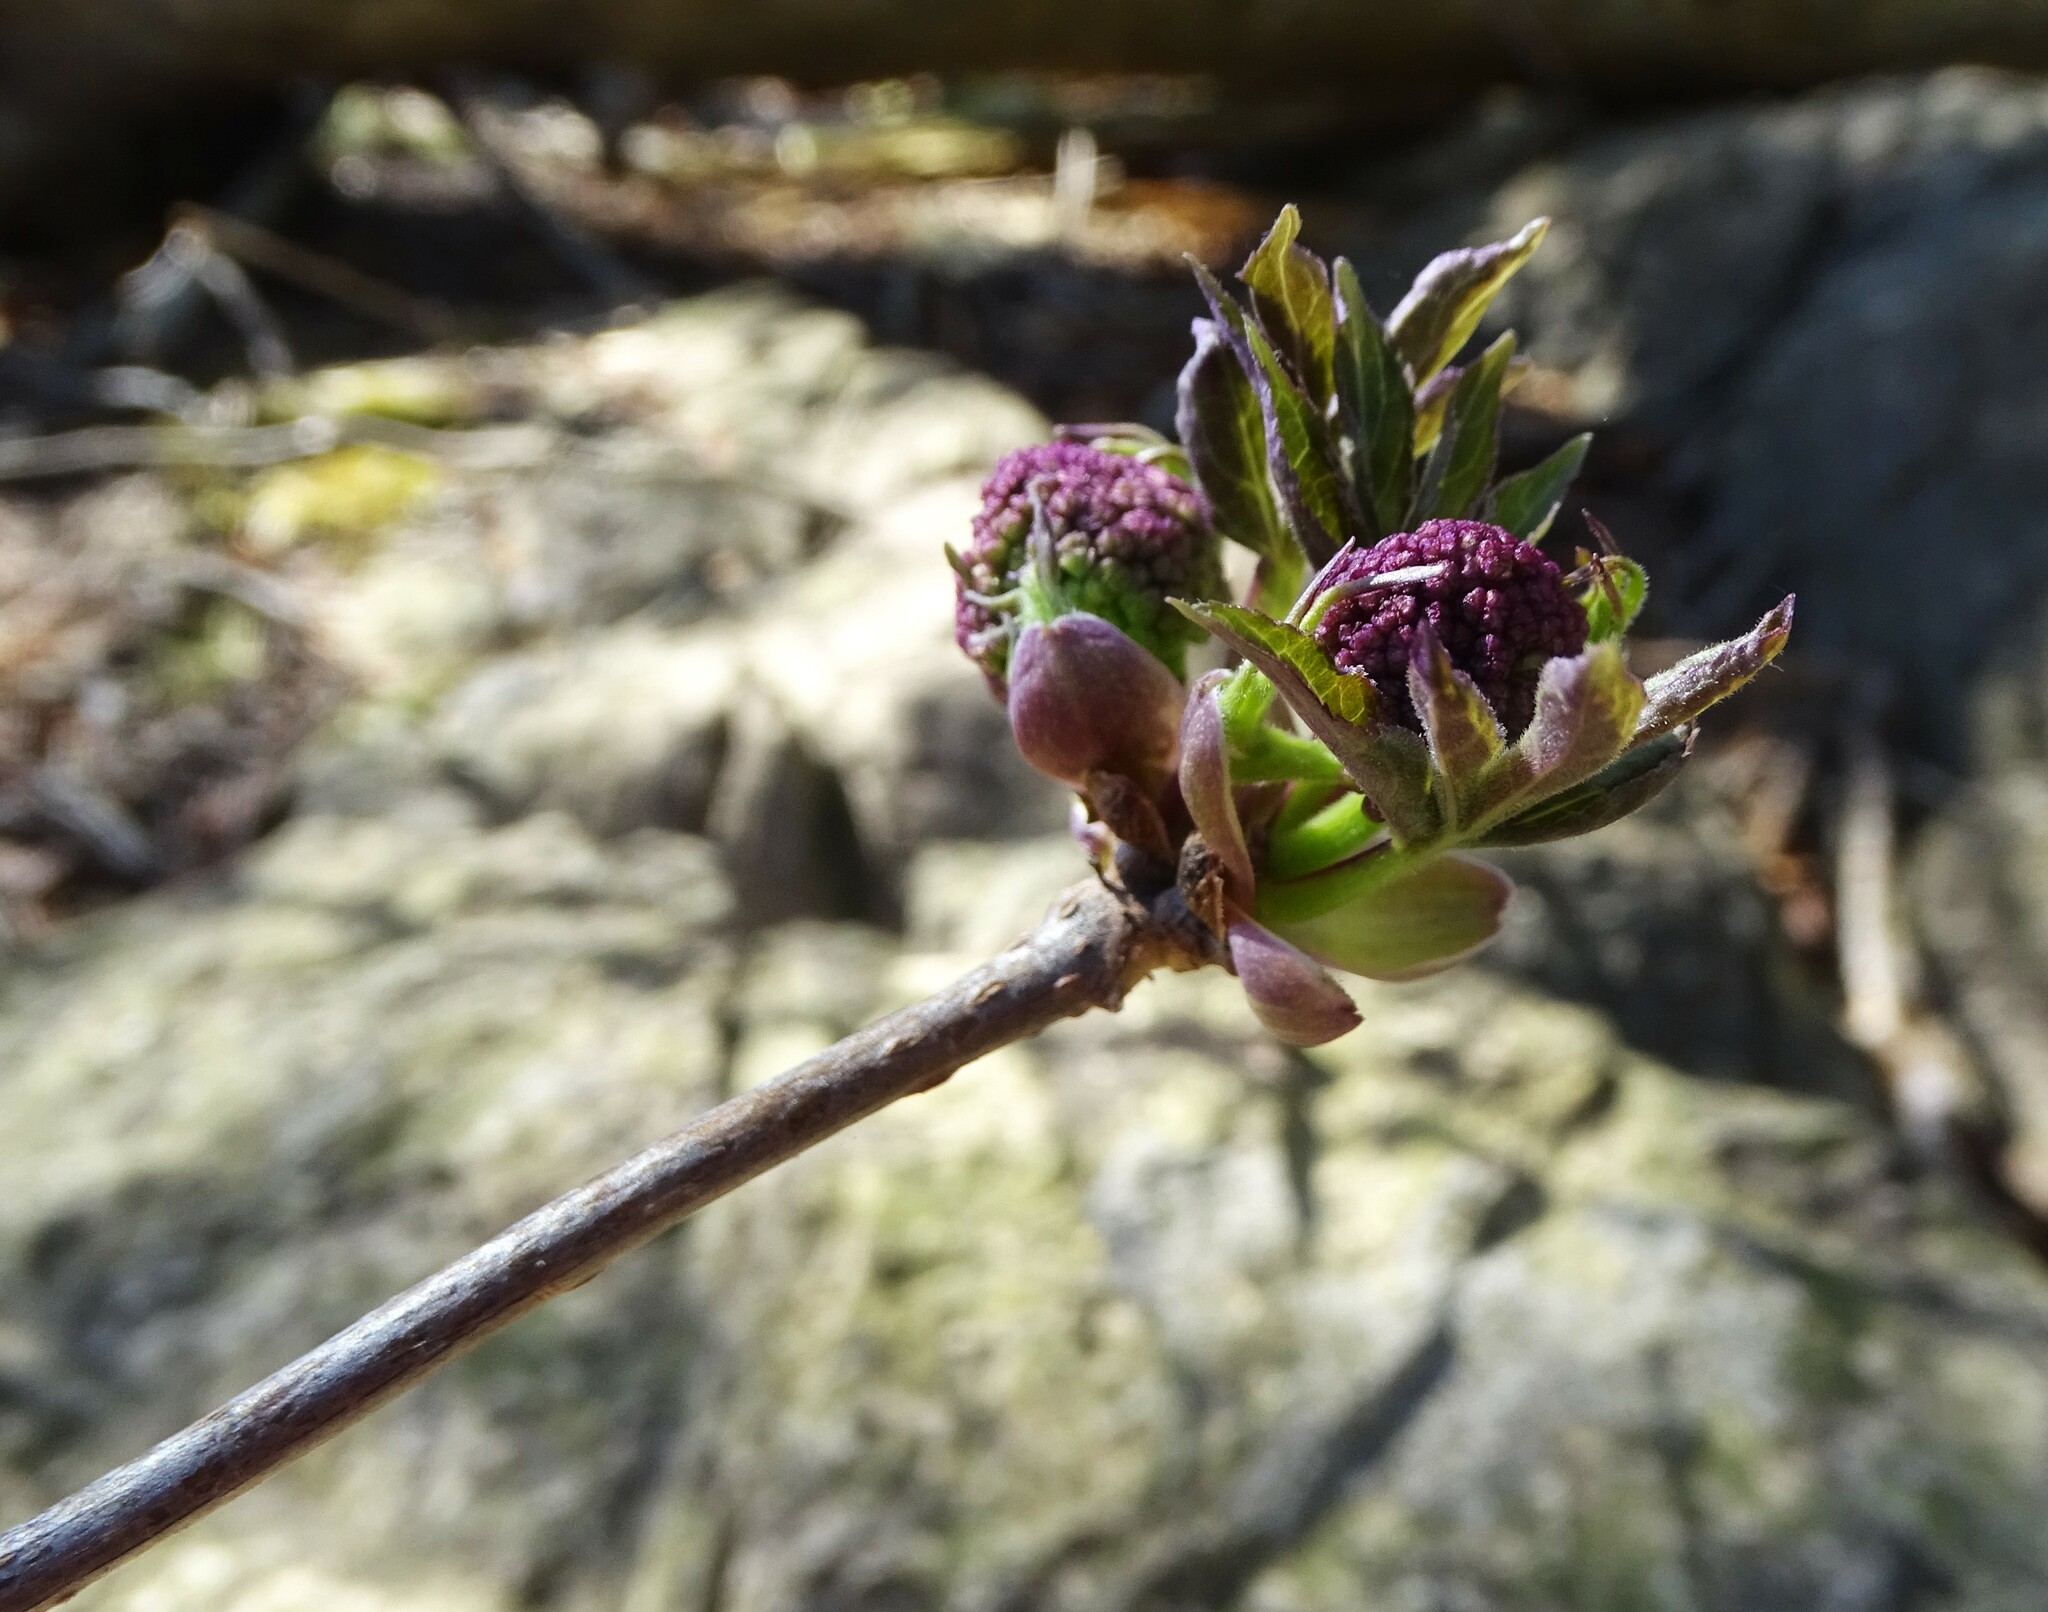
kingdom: Plantae
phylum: Tracheophyta
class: Magnoliopsida
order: Dipsacales
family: Viburnaceae
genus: Sambucus
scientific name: Sambucus racemosa
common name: Red-berried elder
